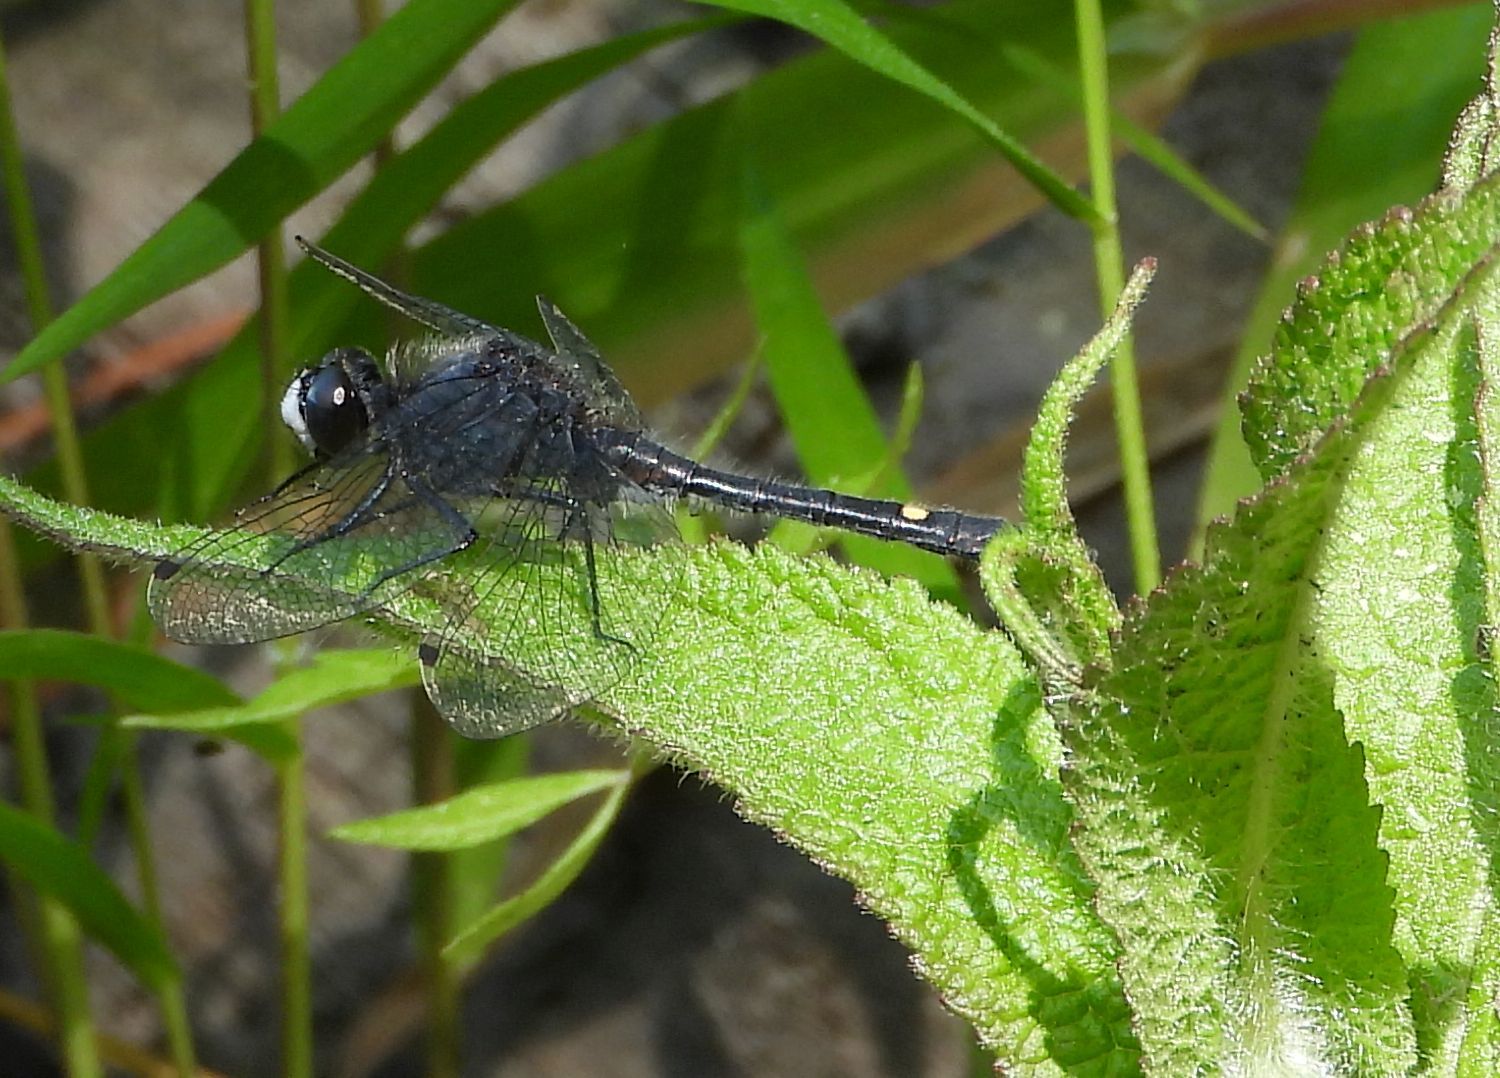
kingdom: Animalia
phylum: Arthropoda
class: Insecta
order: Odonata
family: Libellulidae
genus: Leucorrhinia
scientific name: Leucorrhinia intacta
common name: Dot-tailed whiteface
